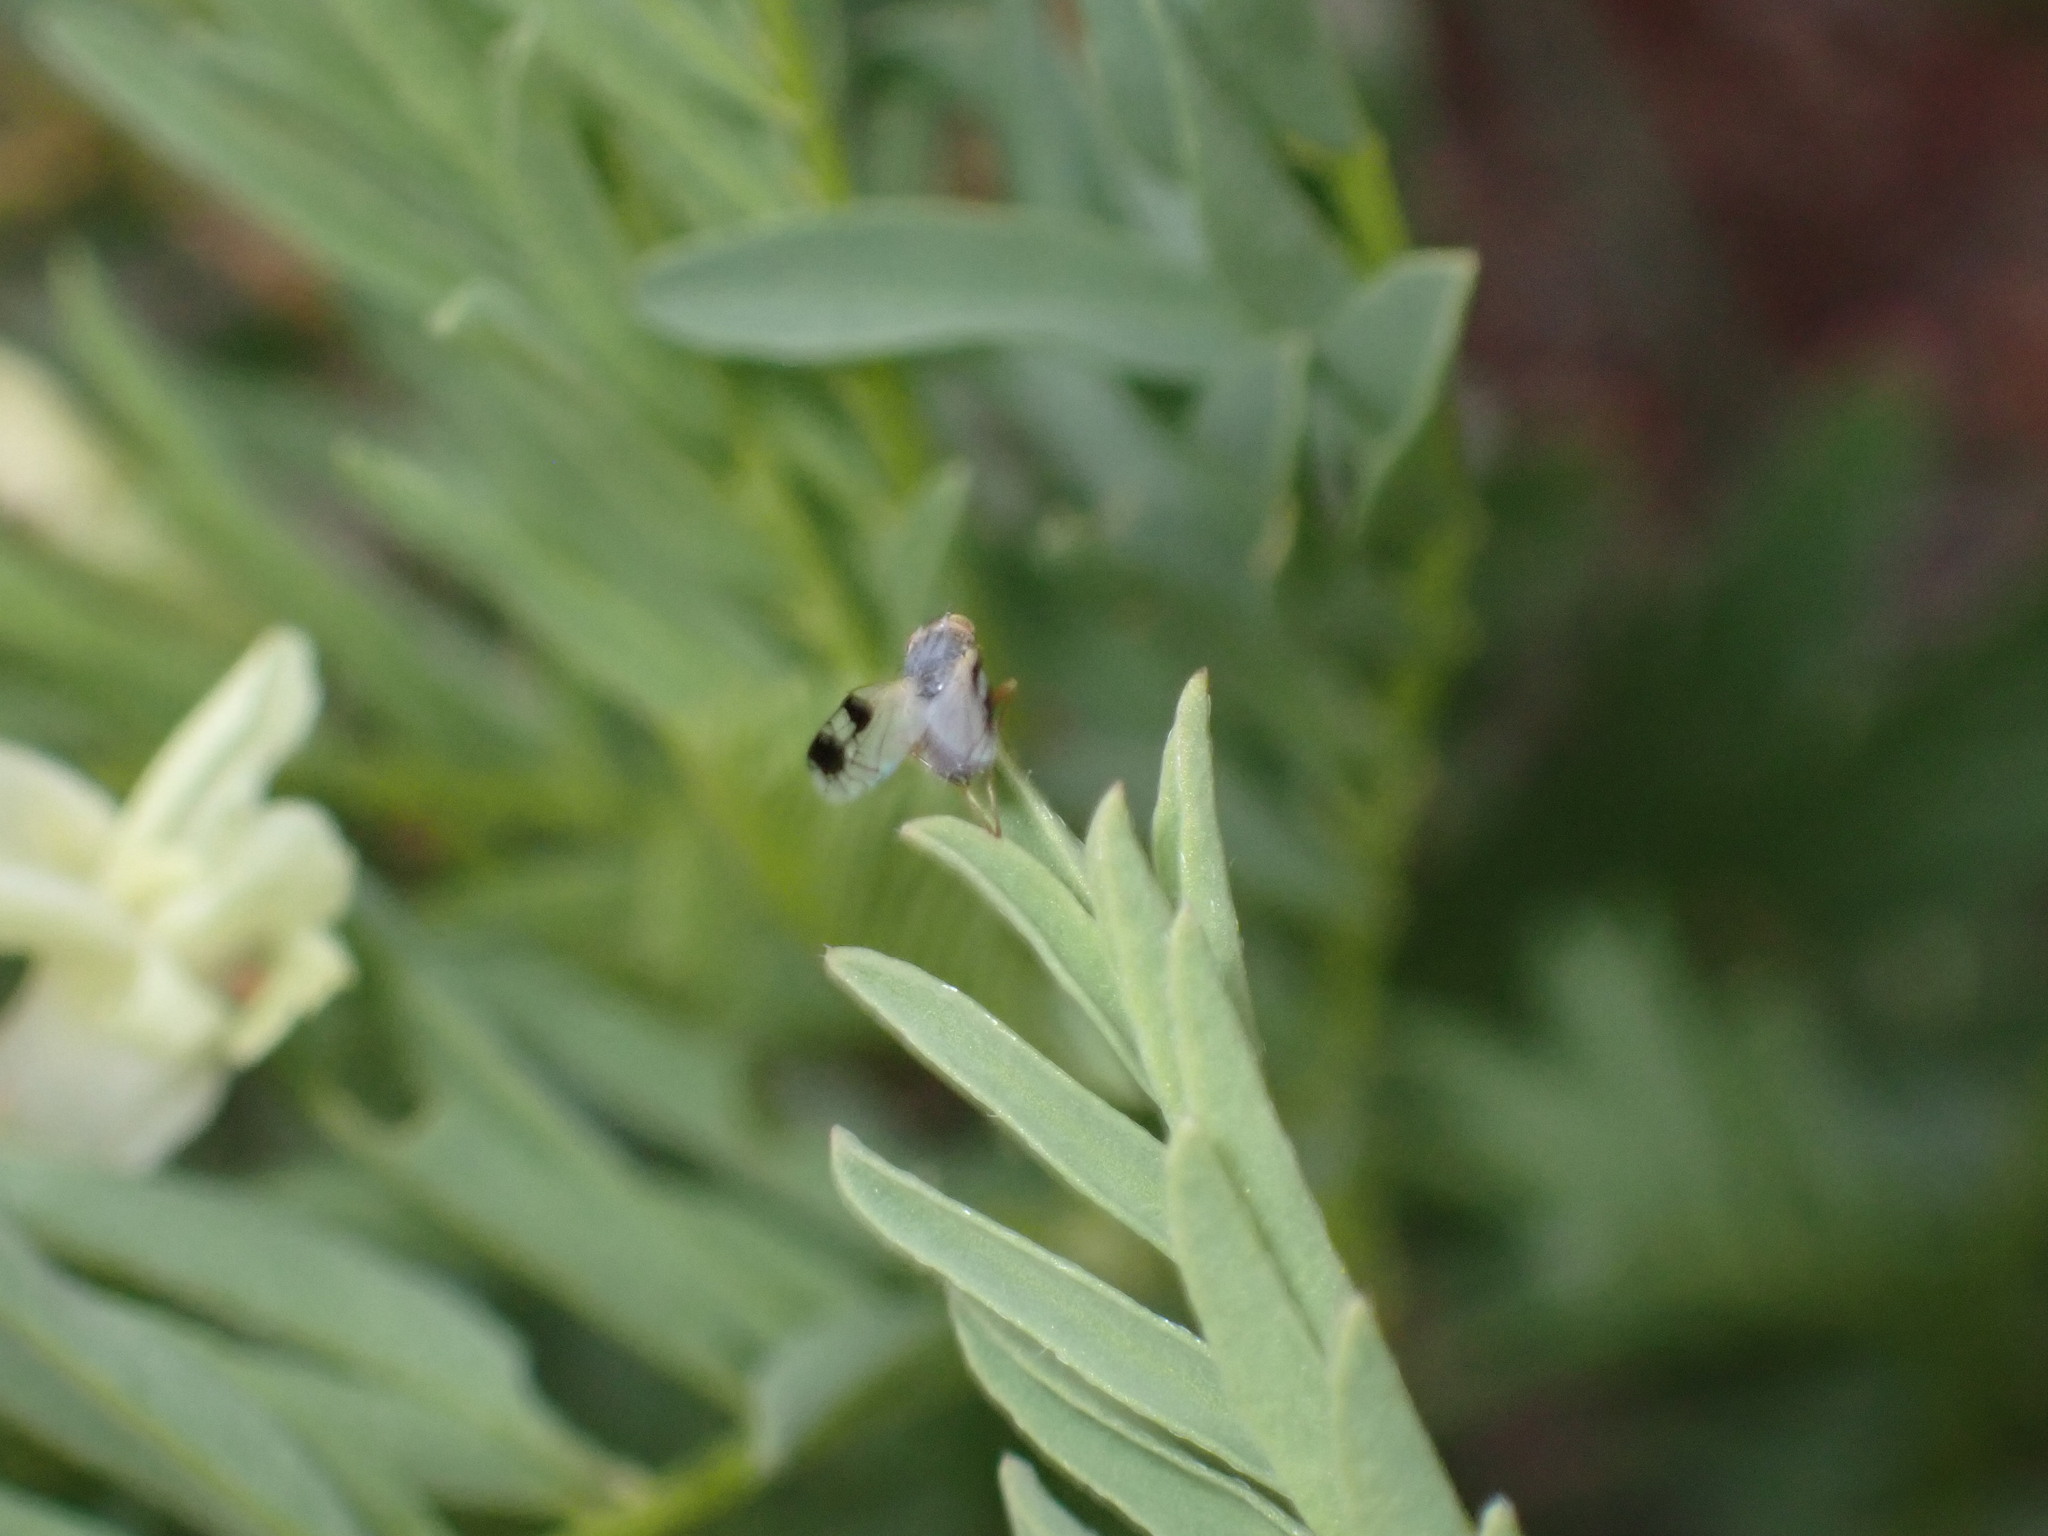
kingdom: Animalia
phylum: Arthropoda
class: Insecta
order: Diptera
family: Tephritidae
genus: Trupanea
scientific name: Trupanea nigricornis
